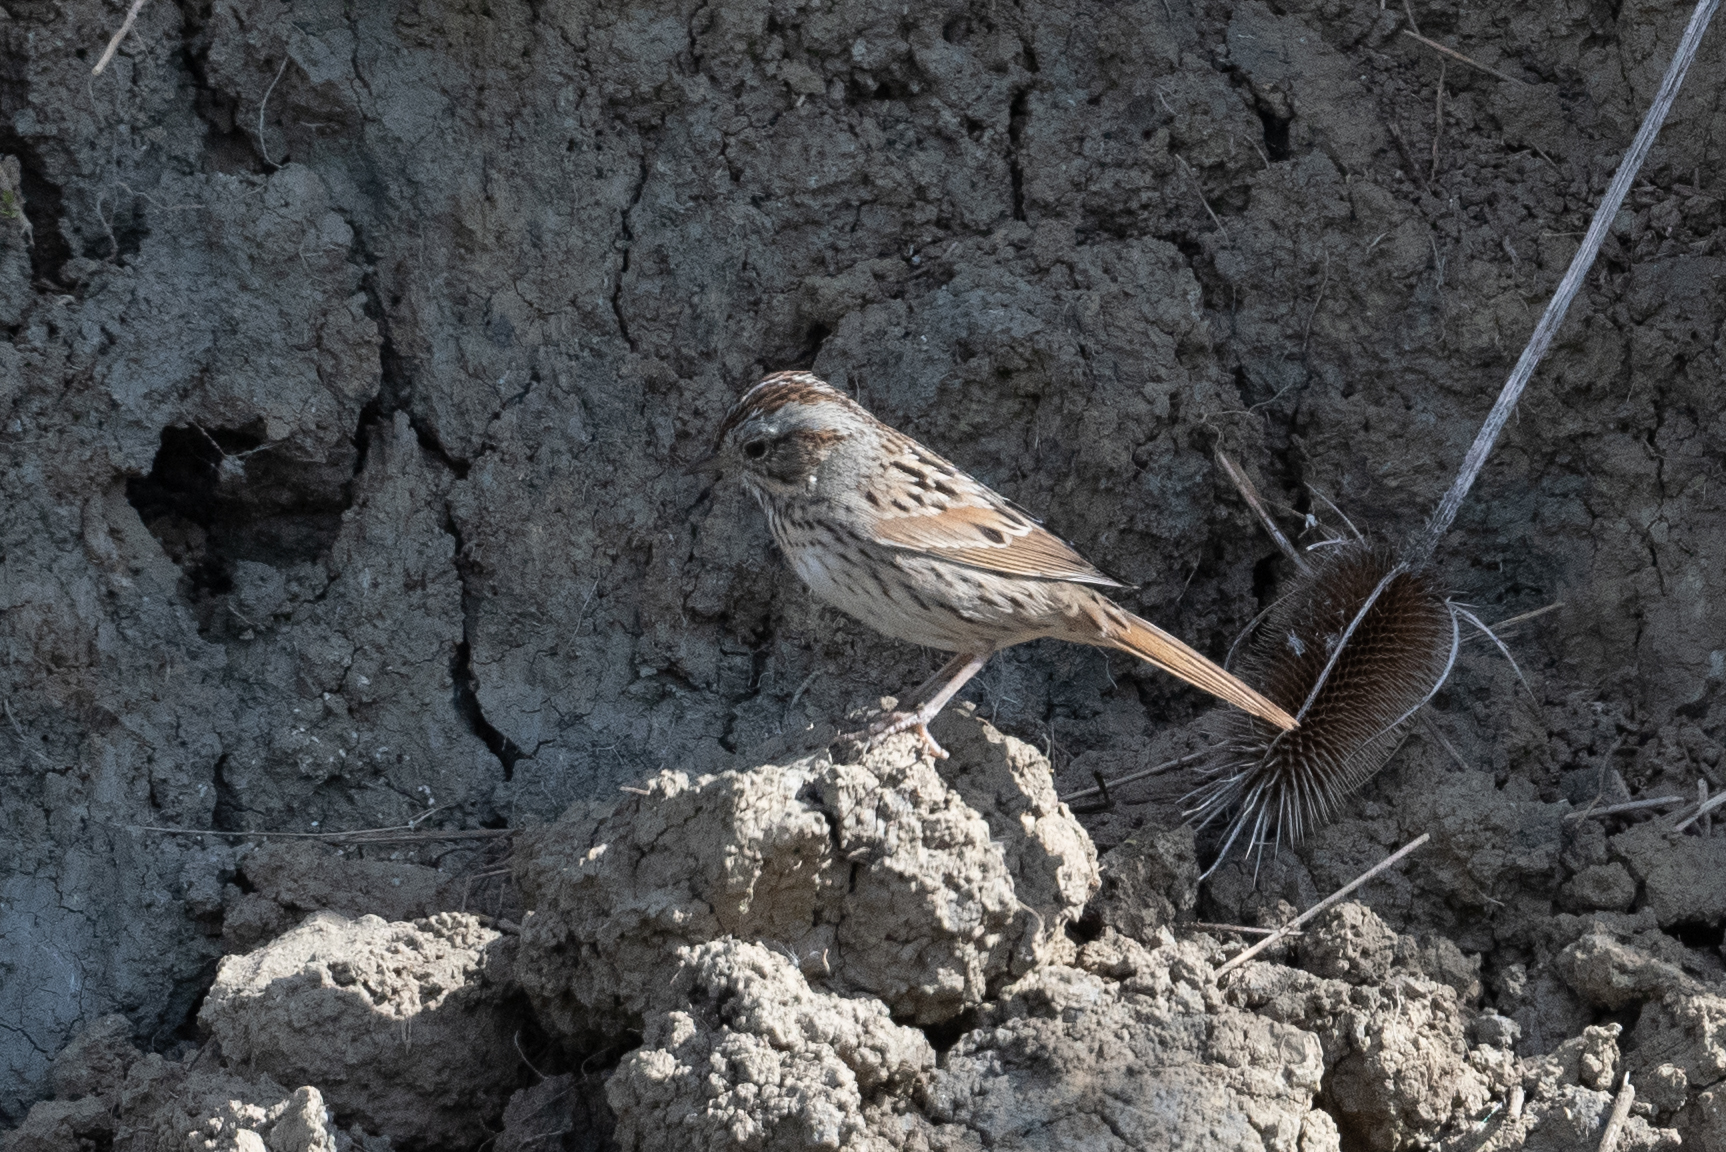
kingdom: Animalia
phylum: Chordata
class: Aves
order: Passeriformes
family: Passerellidae
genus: Melospiza
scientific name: Melospiza lincolnii
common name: Lincoln's sparrow
